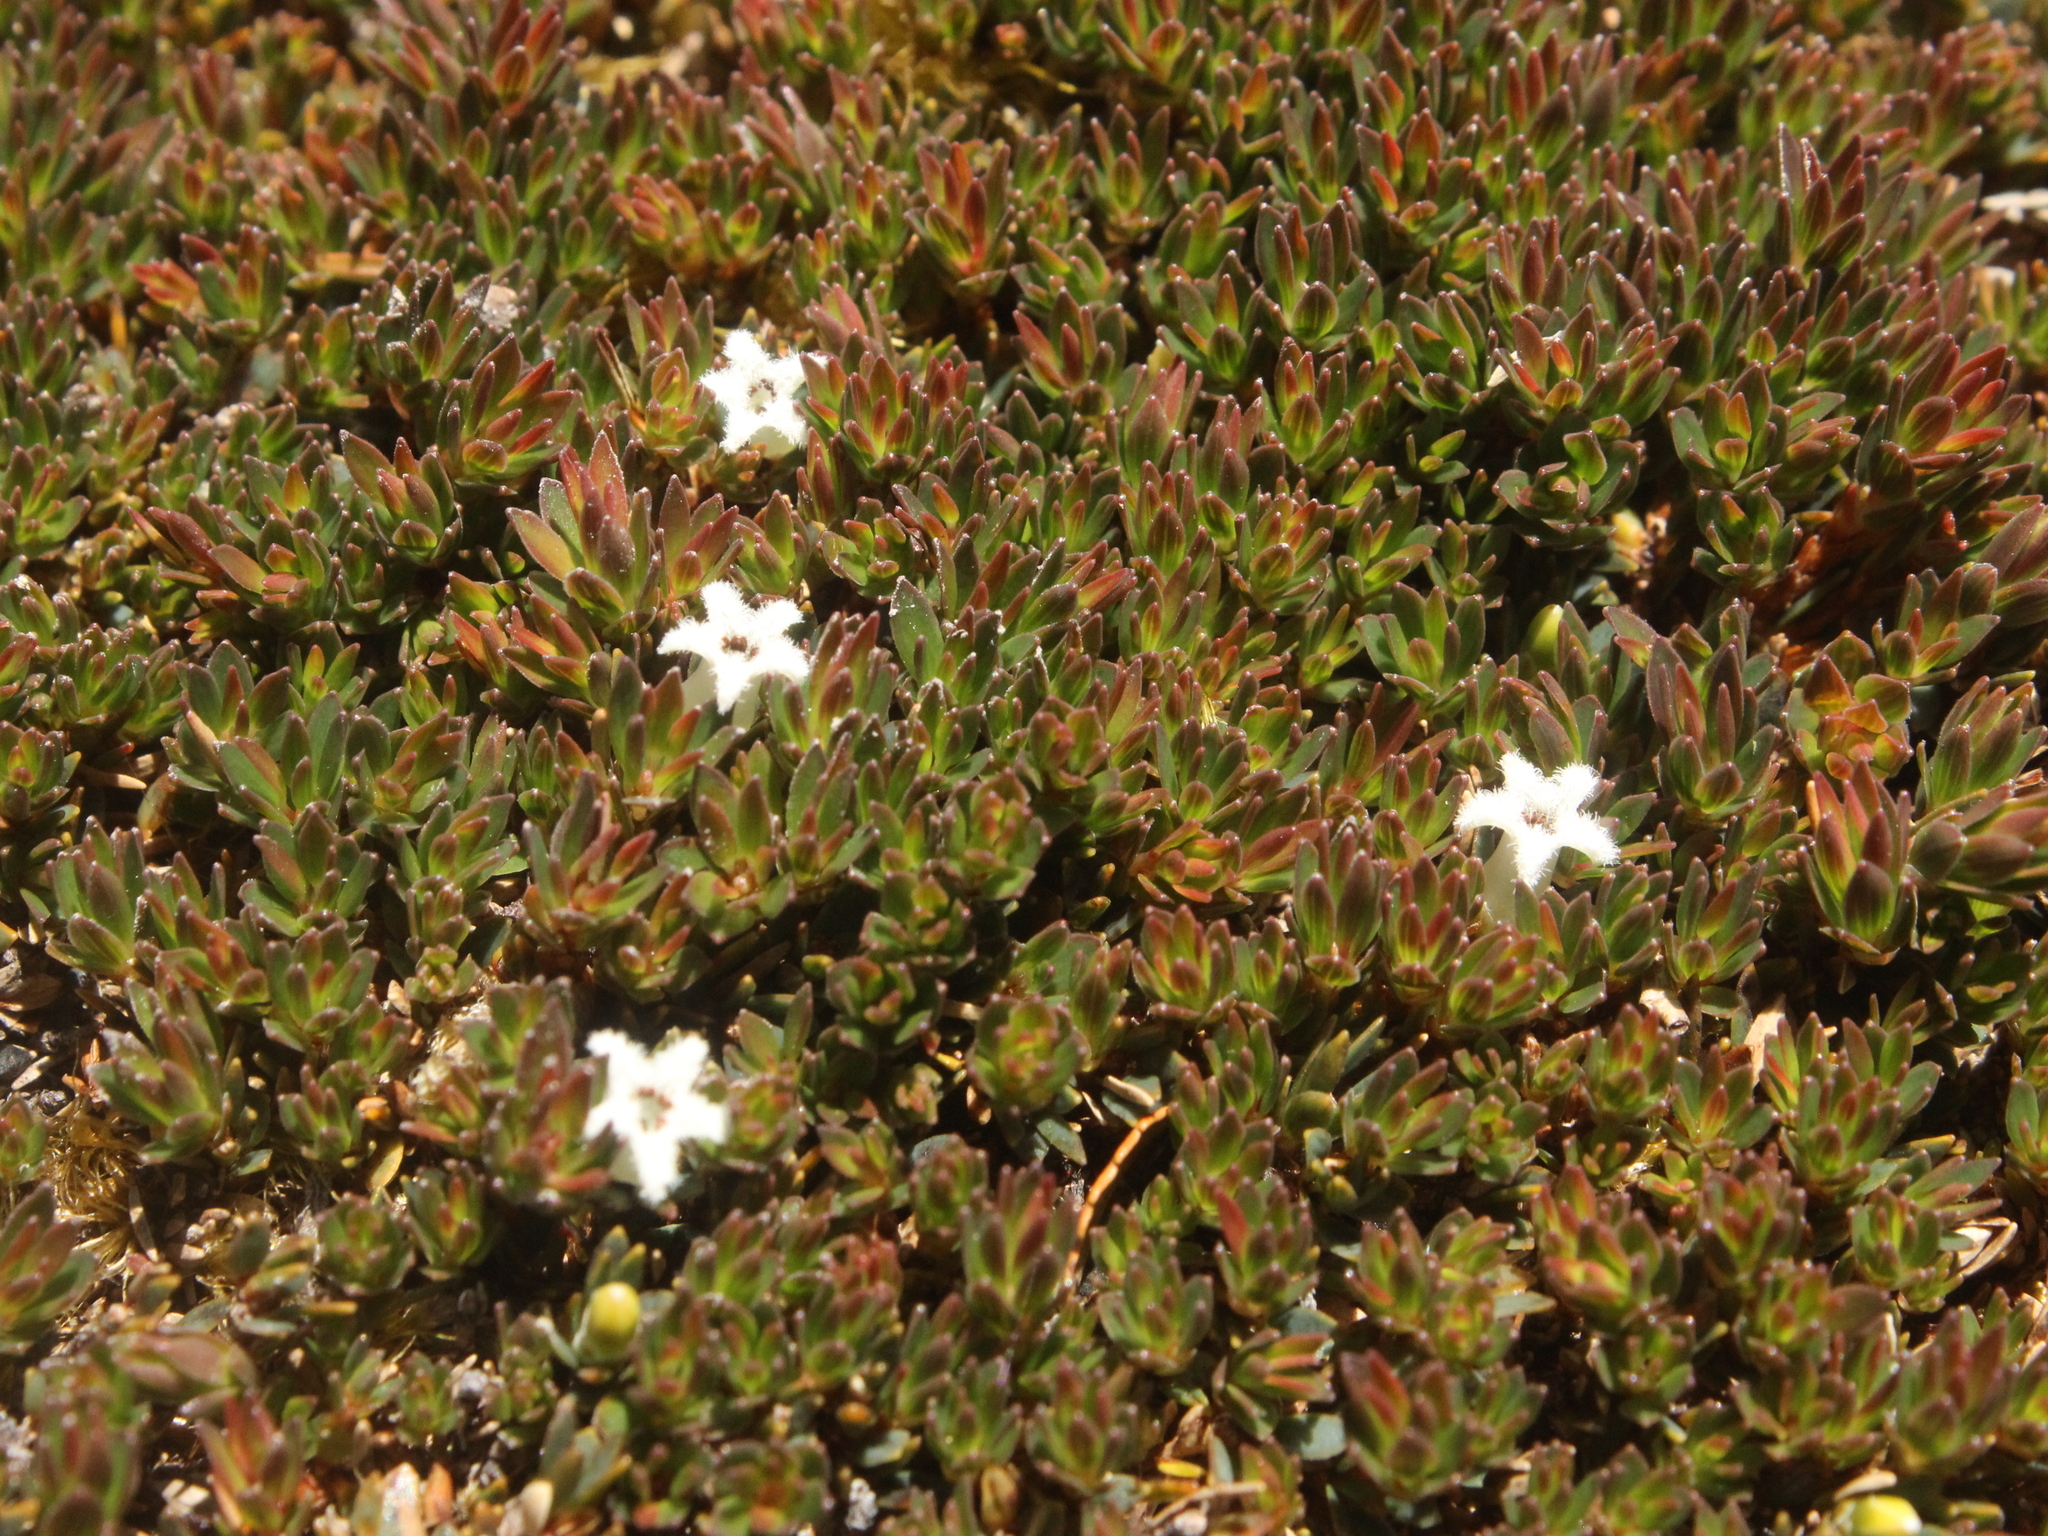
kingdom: Plantae
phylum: Tracheophyta
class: Magnoliopsida
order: Ericales
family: Ericaceae
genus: Pentachondra
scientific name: Pentachondra pumila
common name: Carpet-heath
